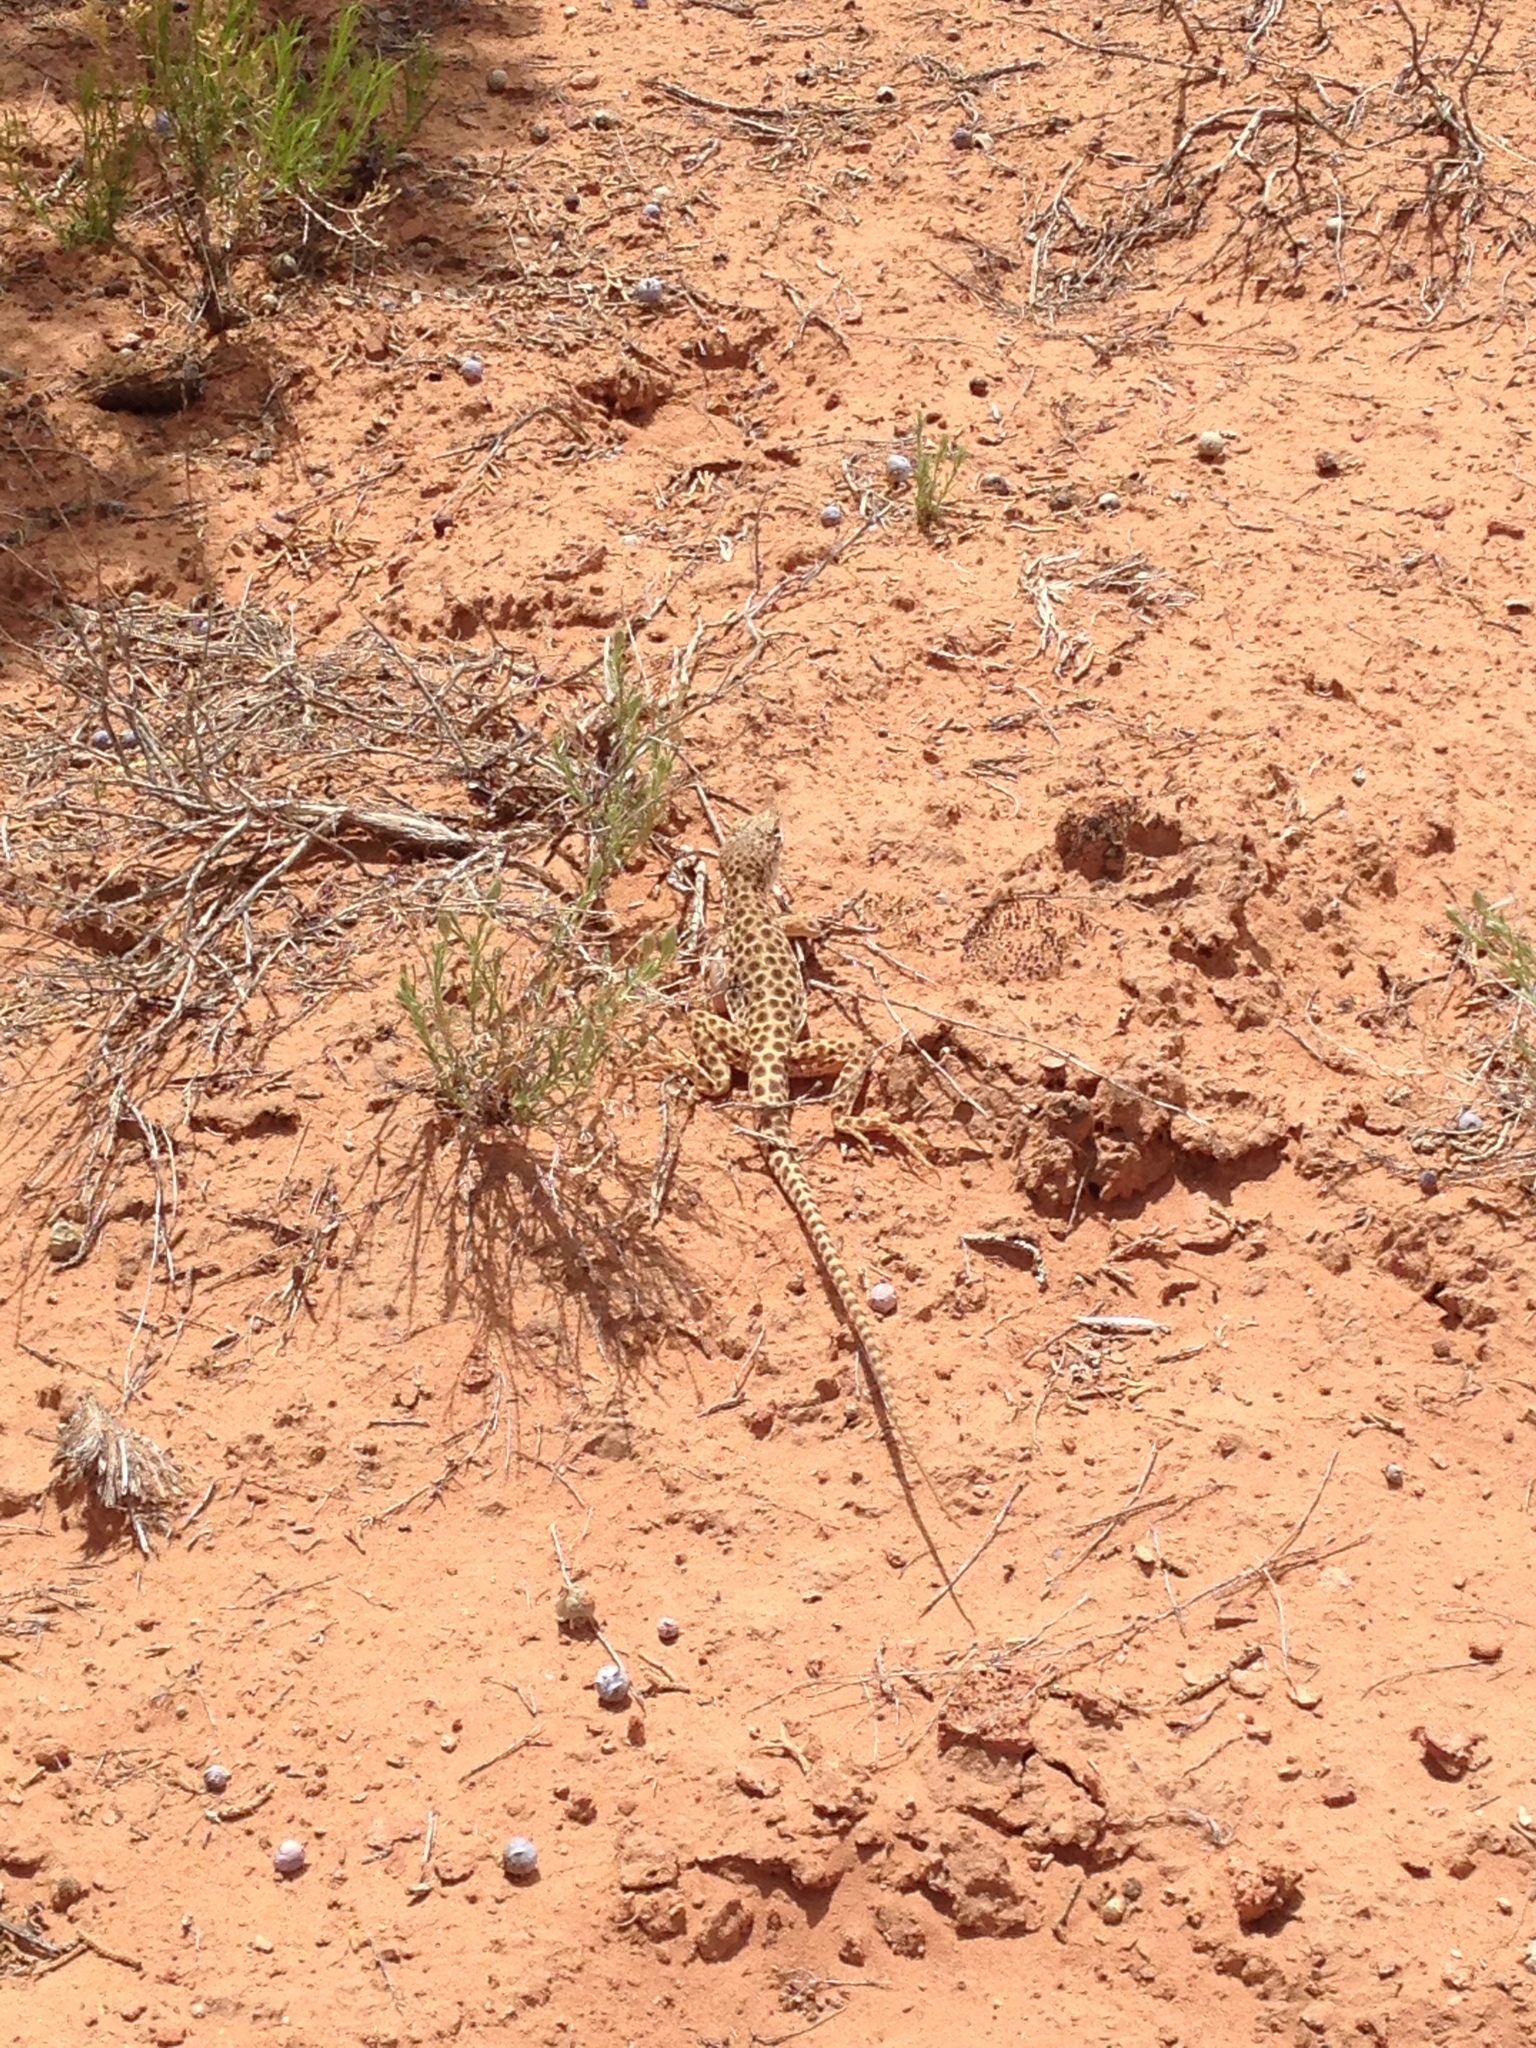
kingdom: Animalia
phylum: Chordata
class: Squamata
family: Crotaphytidae
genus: Gambelia
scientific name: Gambelia wislizenii
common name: Longnose leopard lizard
